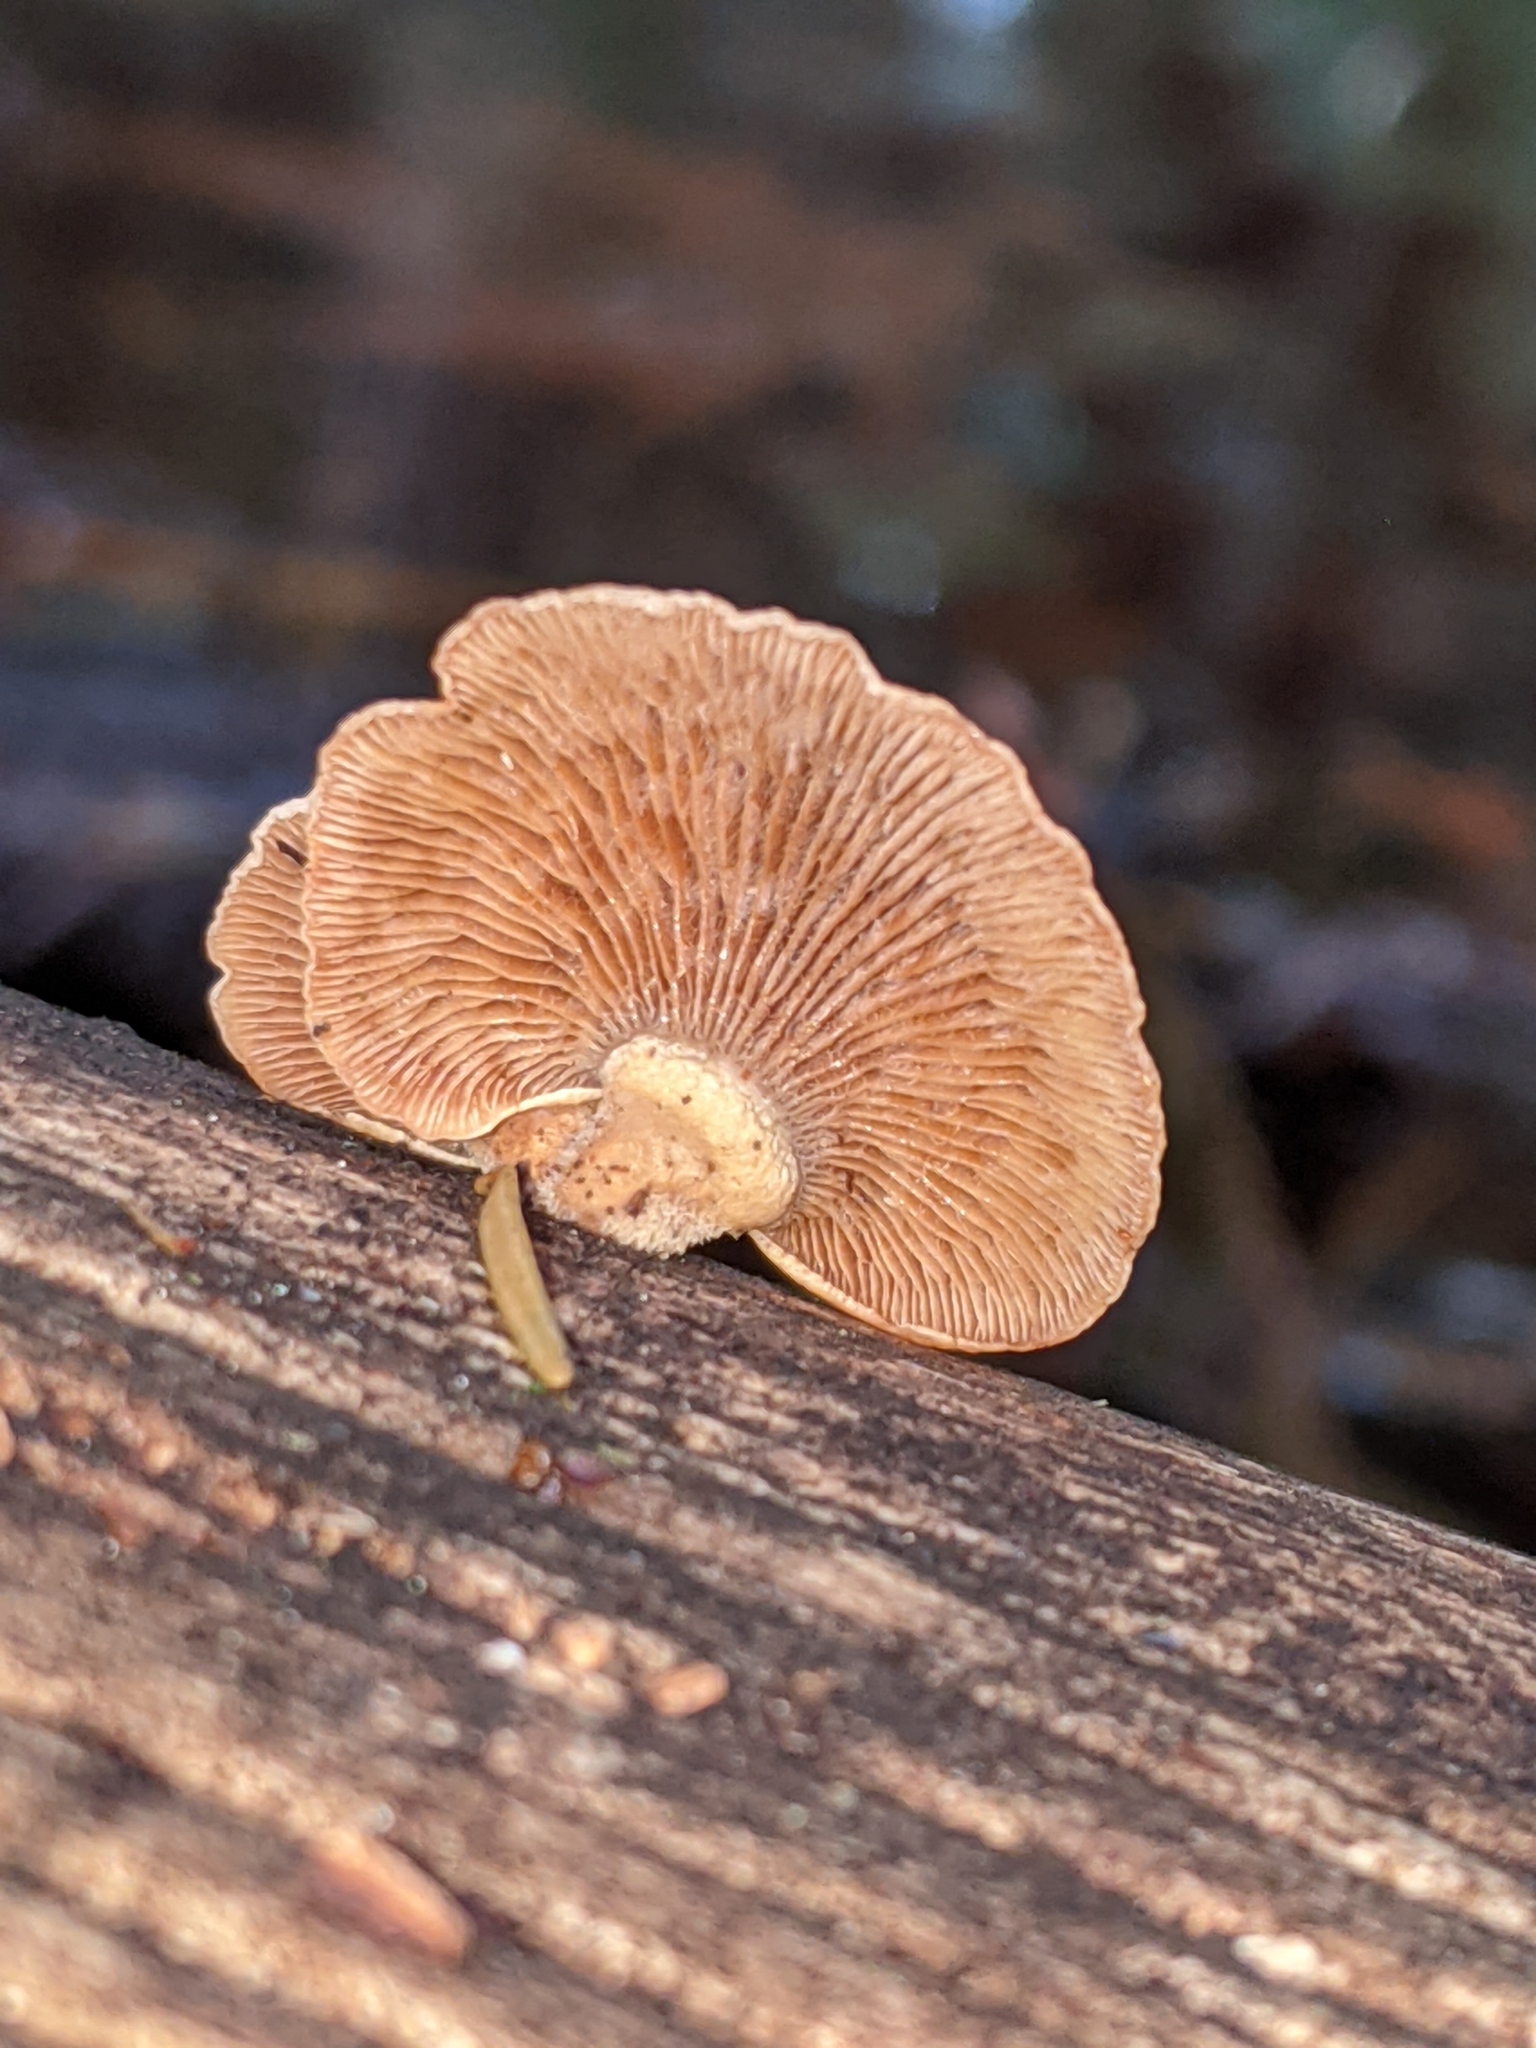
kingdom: Fungi
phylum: Basidiomycota
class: Agaricomycetes
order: Agaricales
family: Mycenaceae
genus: Panellus
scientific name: Panellus stipticus
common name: Bitter oysterling
